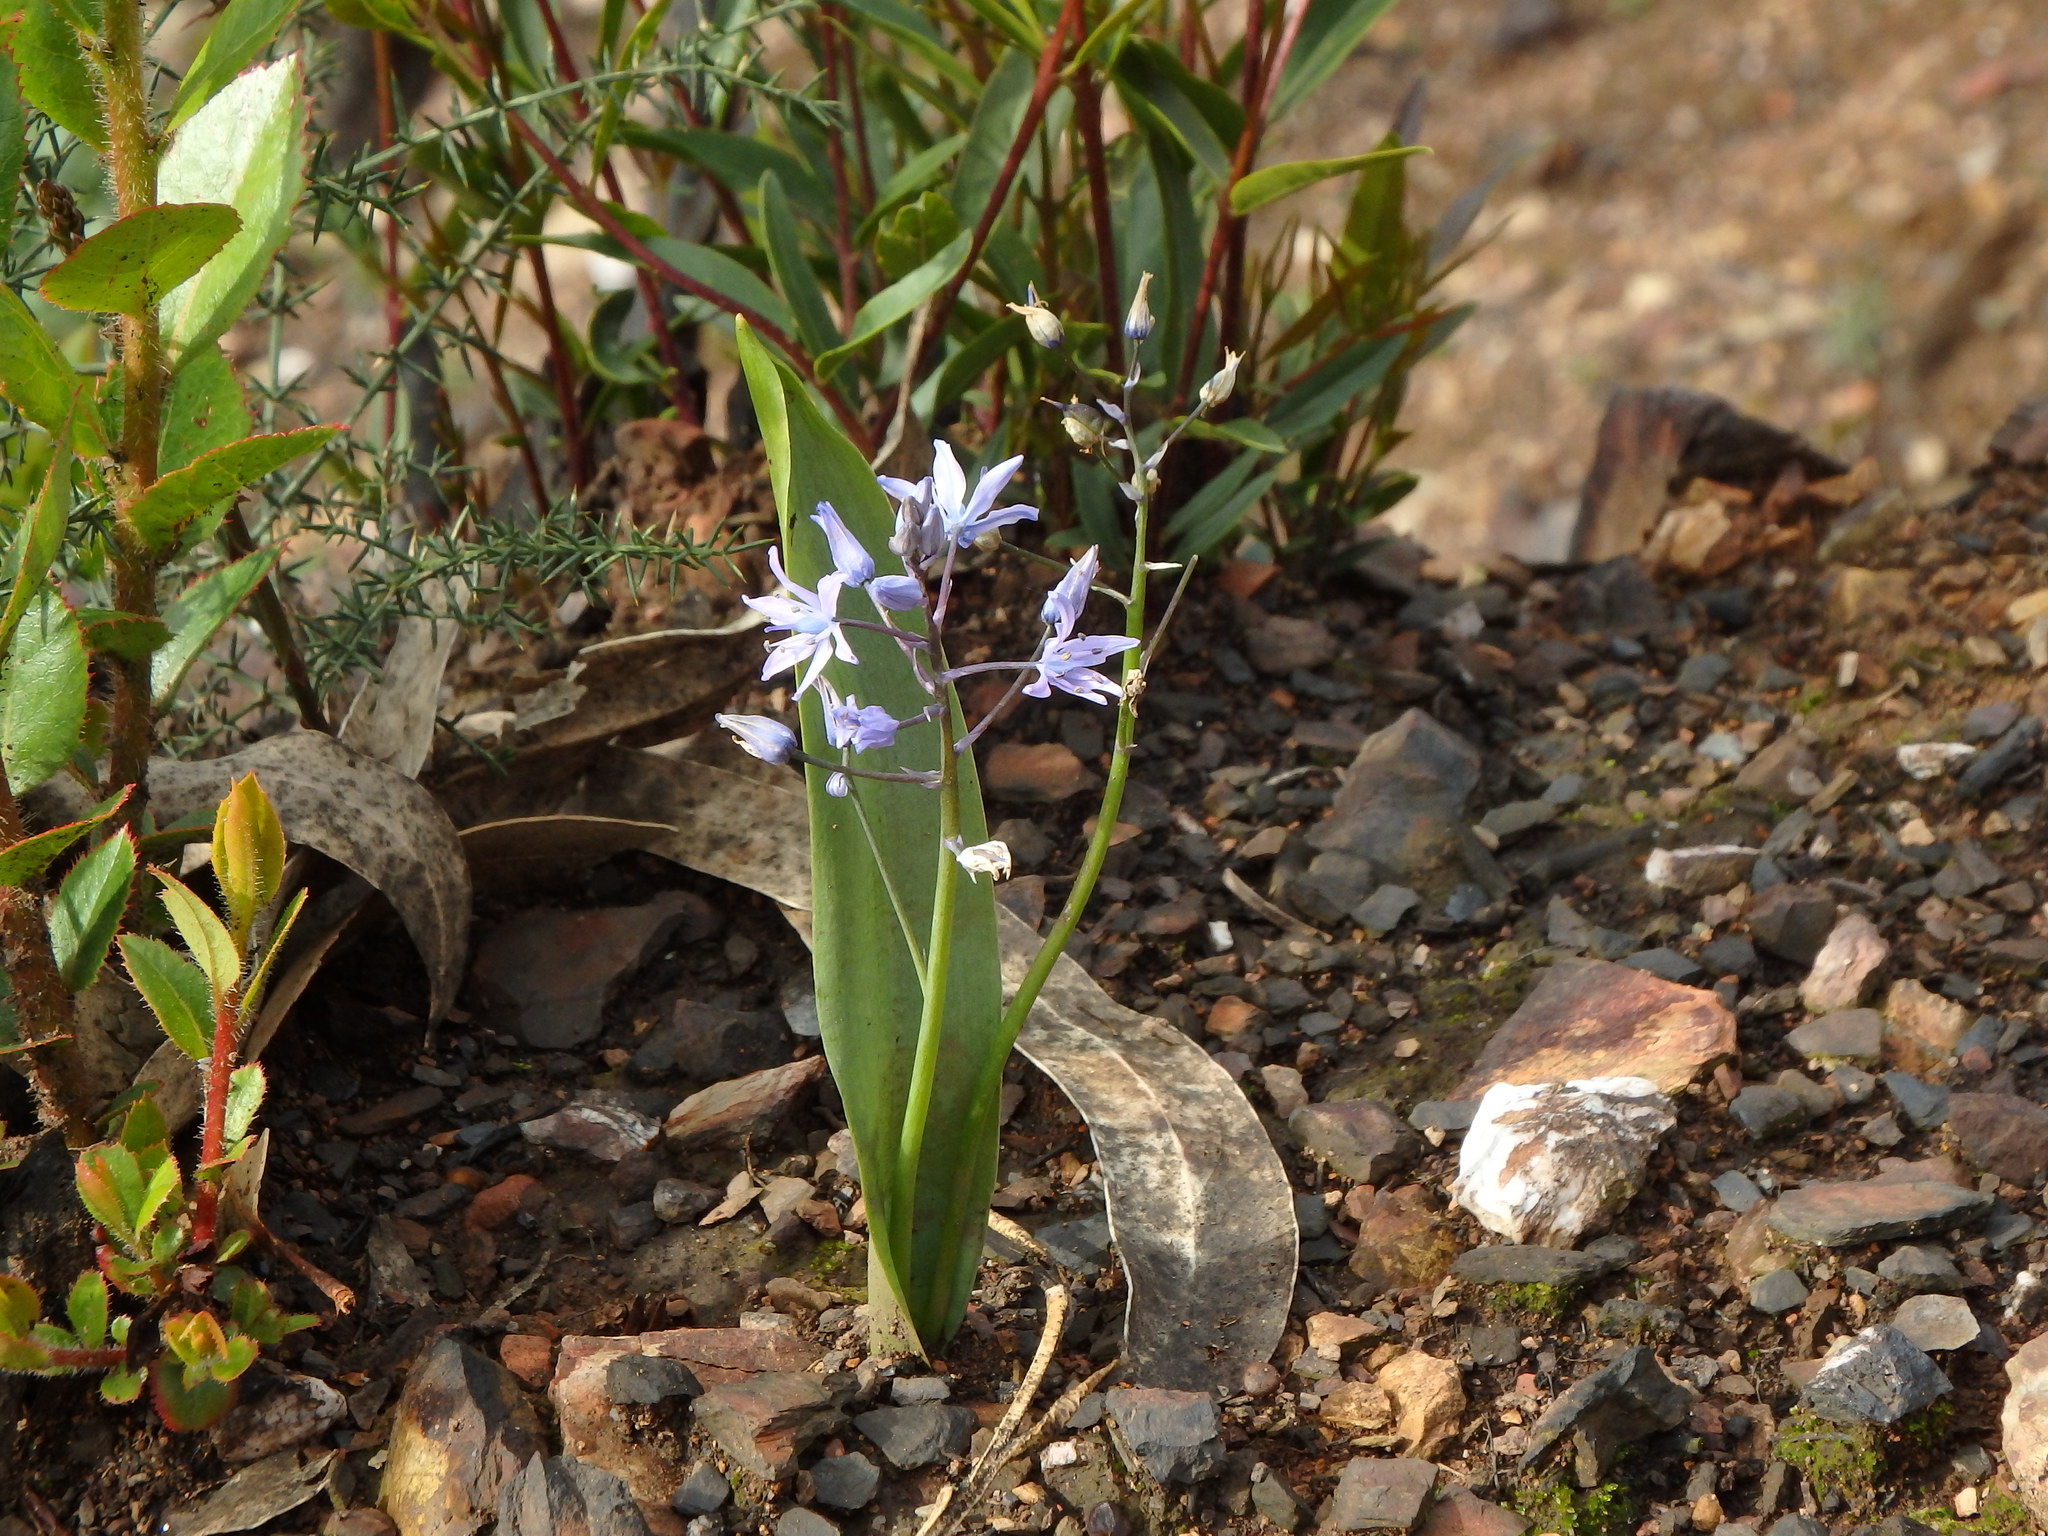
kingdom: Plantae
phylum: Tracheophyta
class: Liliopsida
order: Asparagales
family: Asparagaceae
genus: Scilla
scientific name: Scilla monophyllos
